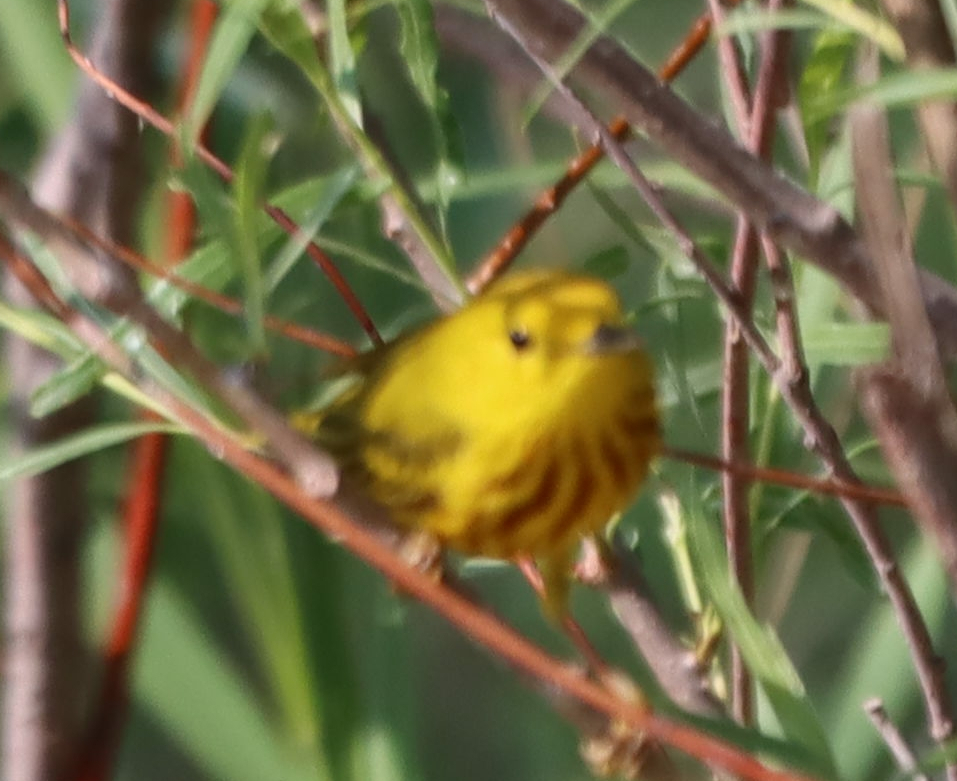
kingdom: Animalia
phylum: Chordata
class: Aves
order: Passeriformes
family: Parulidae
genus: Setophaga
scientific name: Setophaga petechia
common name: Yellow warbler
